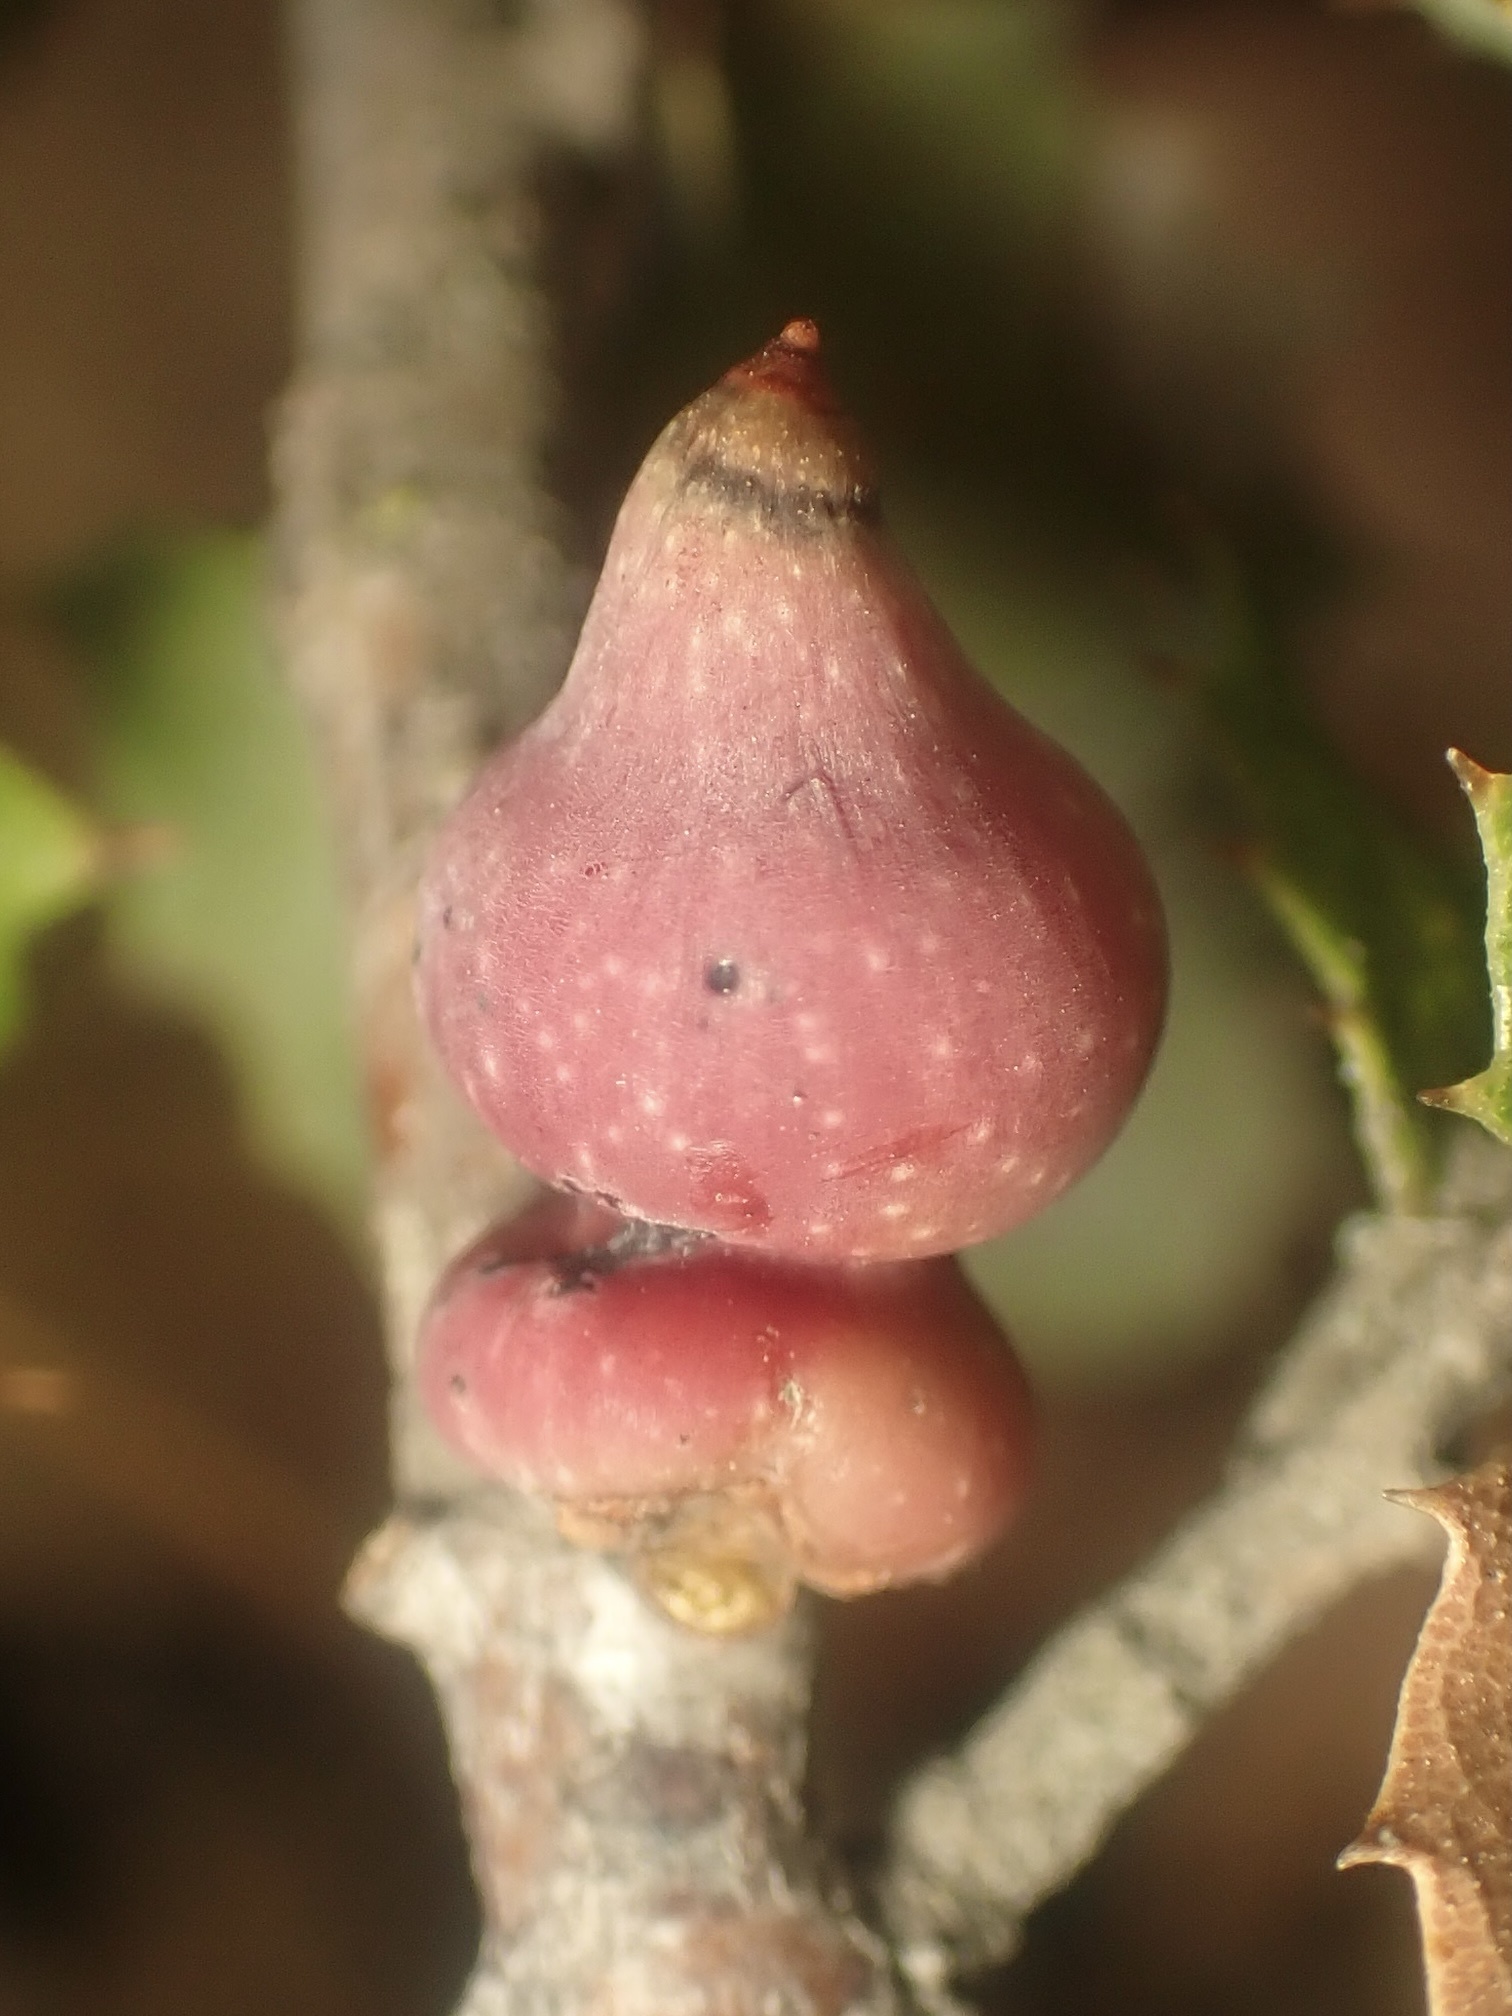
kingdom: Animalia
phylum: Arthropoda
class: Insecta
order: Hymenoptera
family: Cynipidae
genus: Heteroecus
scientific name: Heteroecus
